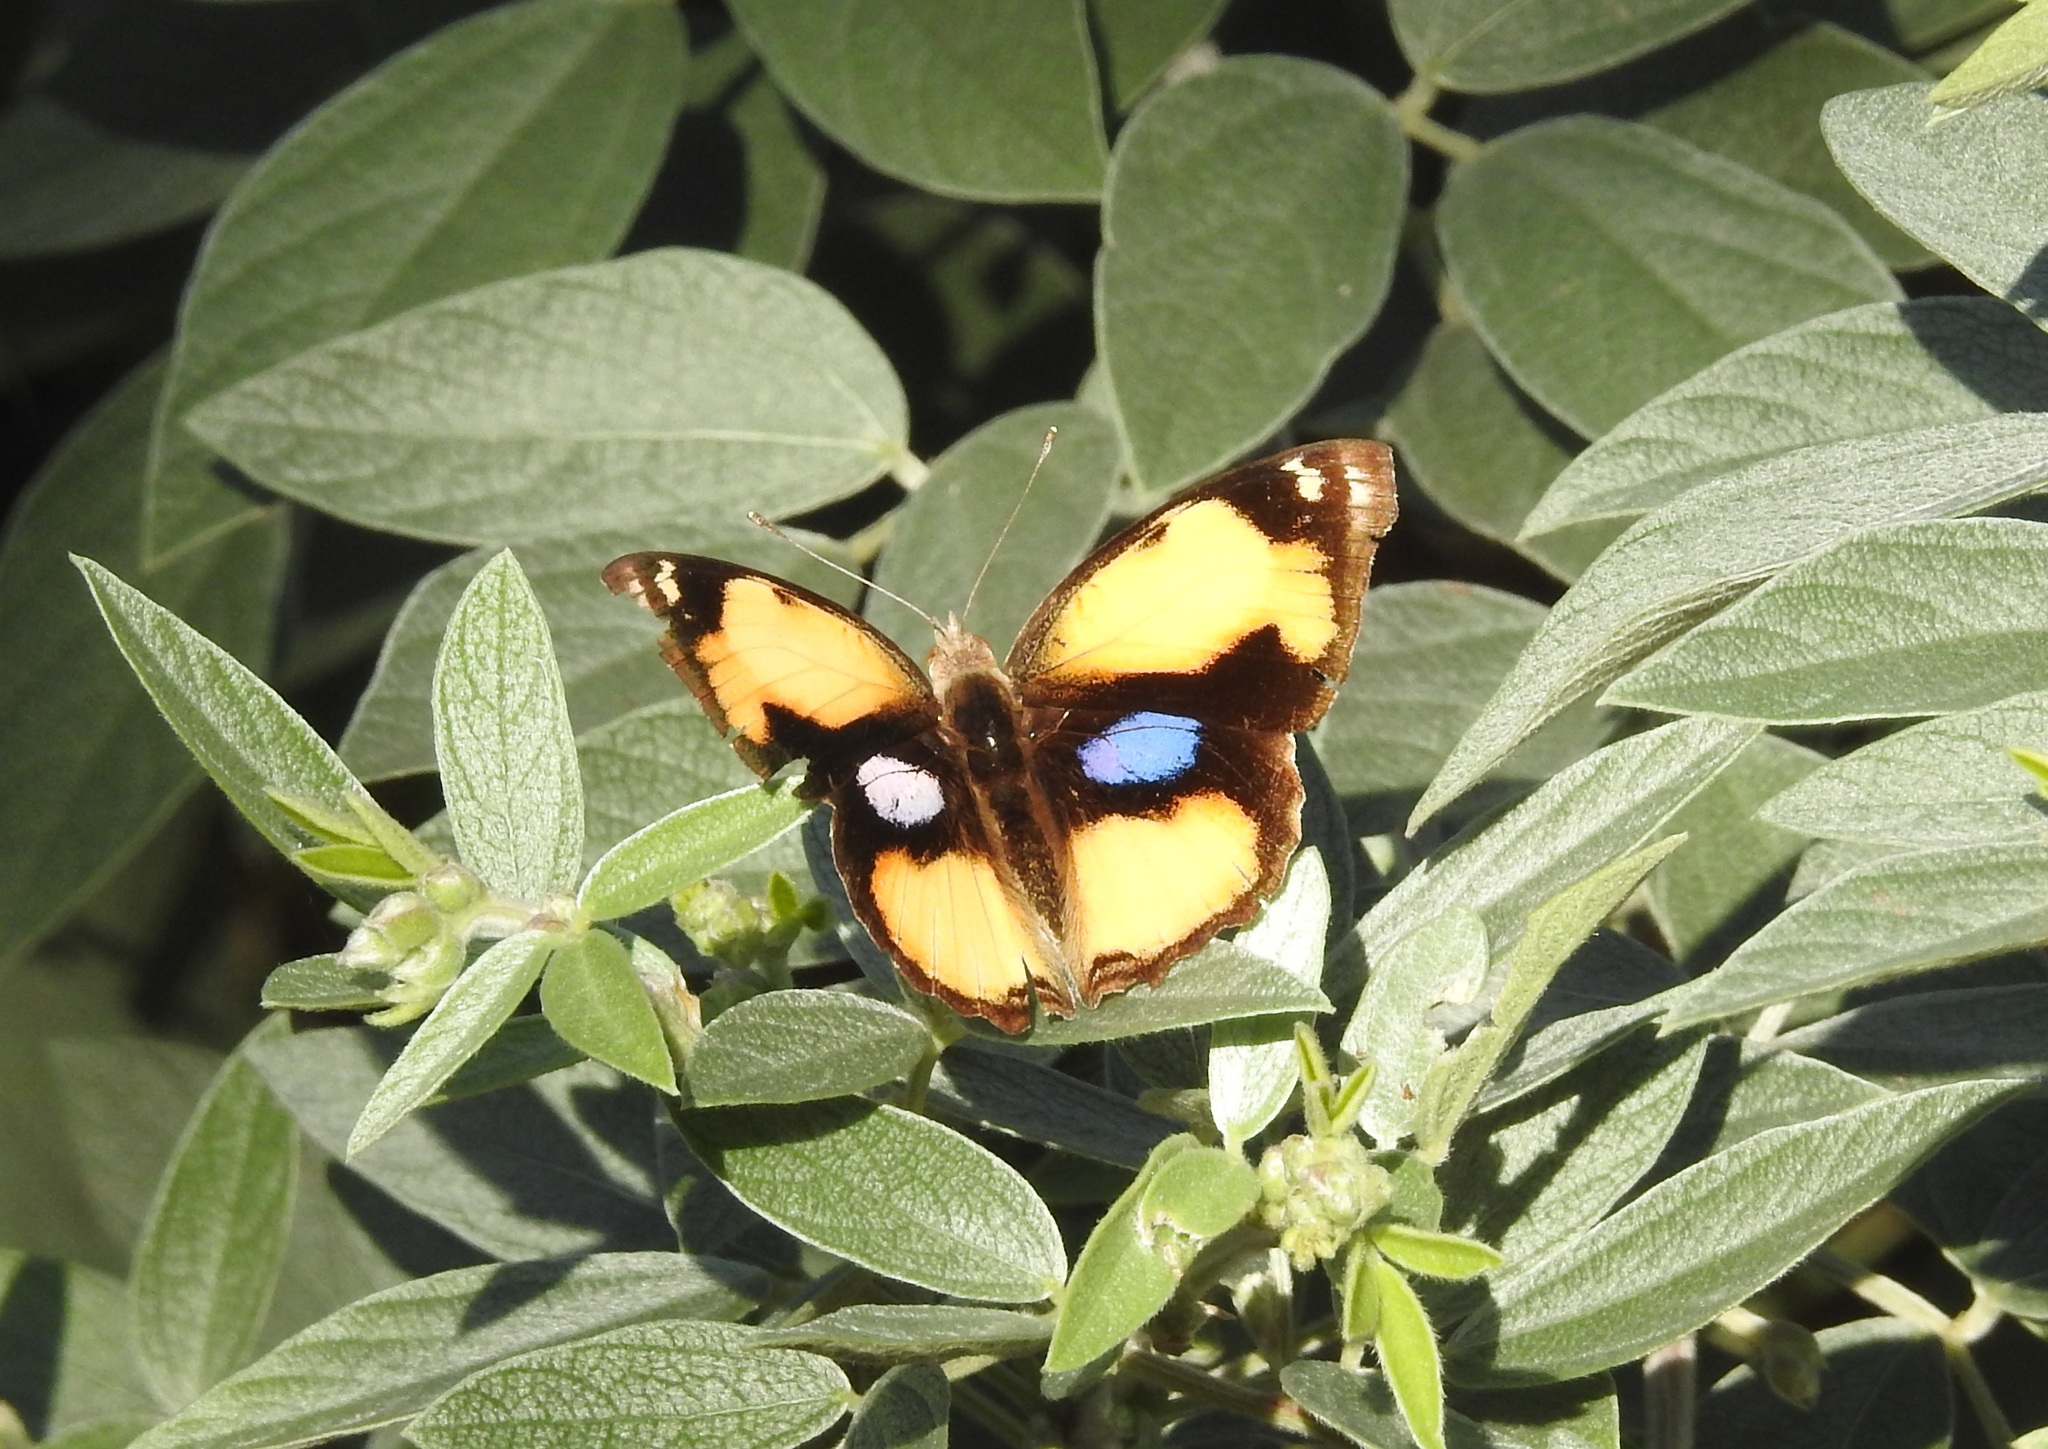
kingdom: Animalia
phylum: Arthropoda
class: Insecta
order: Lepidoptera
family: Nymphalidae
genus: Junonia
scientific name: Junonia hierta
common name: Yellow pansy
